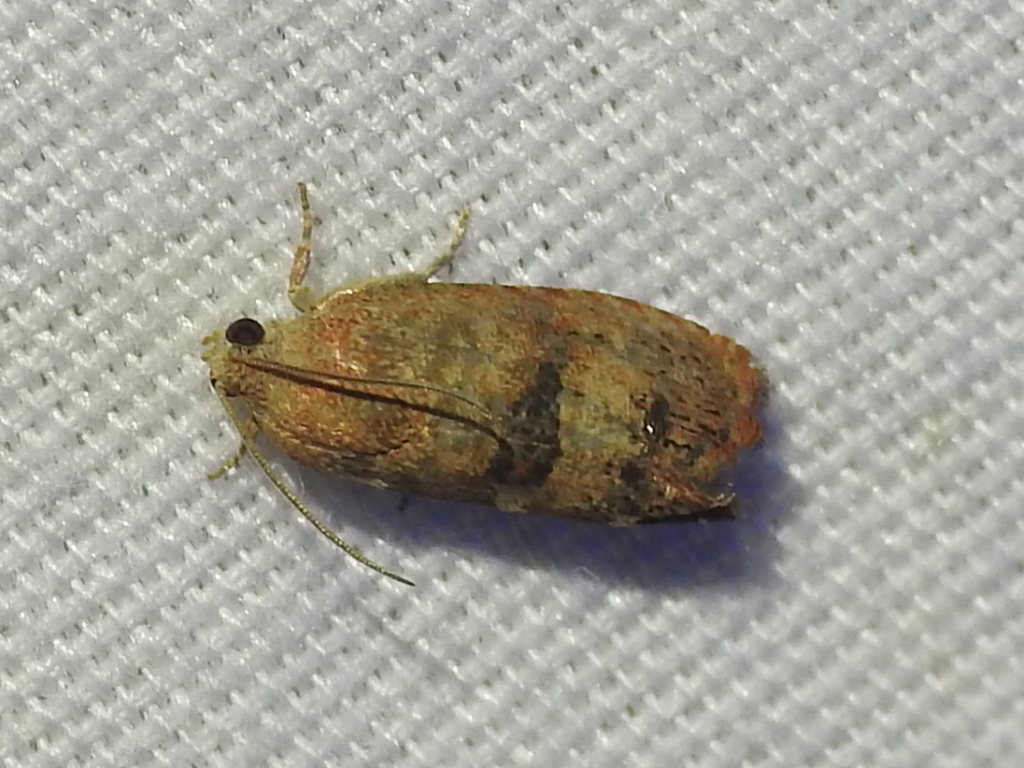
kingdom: Animalia
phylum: Arthropoda
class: Insecta
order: Lepidoptera
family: Tortricidae
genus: Cydia
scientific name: Cydia latiferreana
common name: Filbertworm moth
